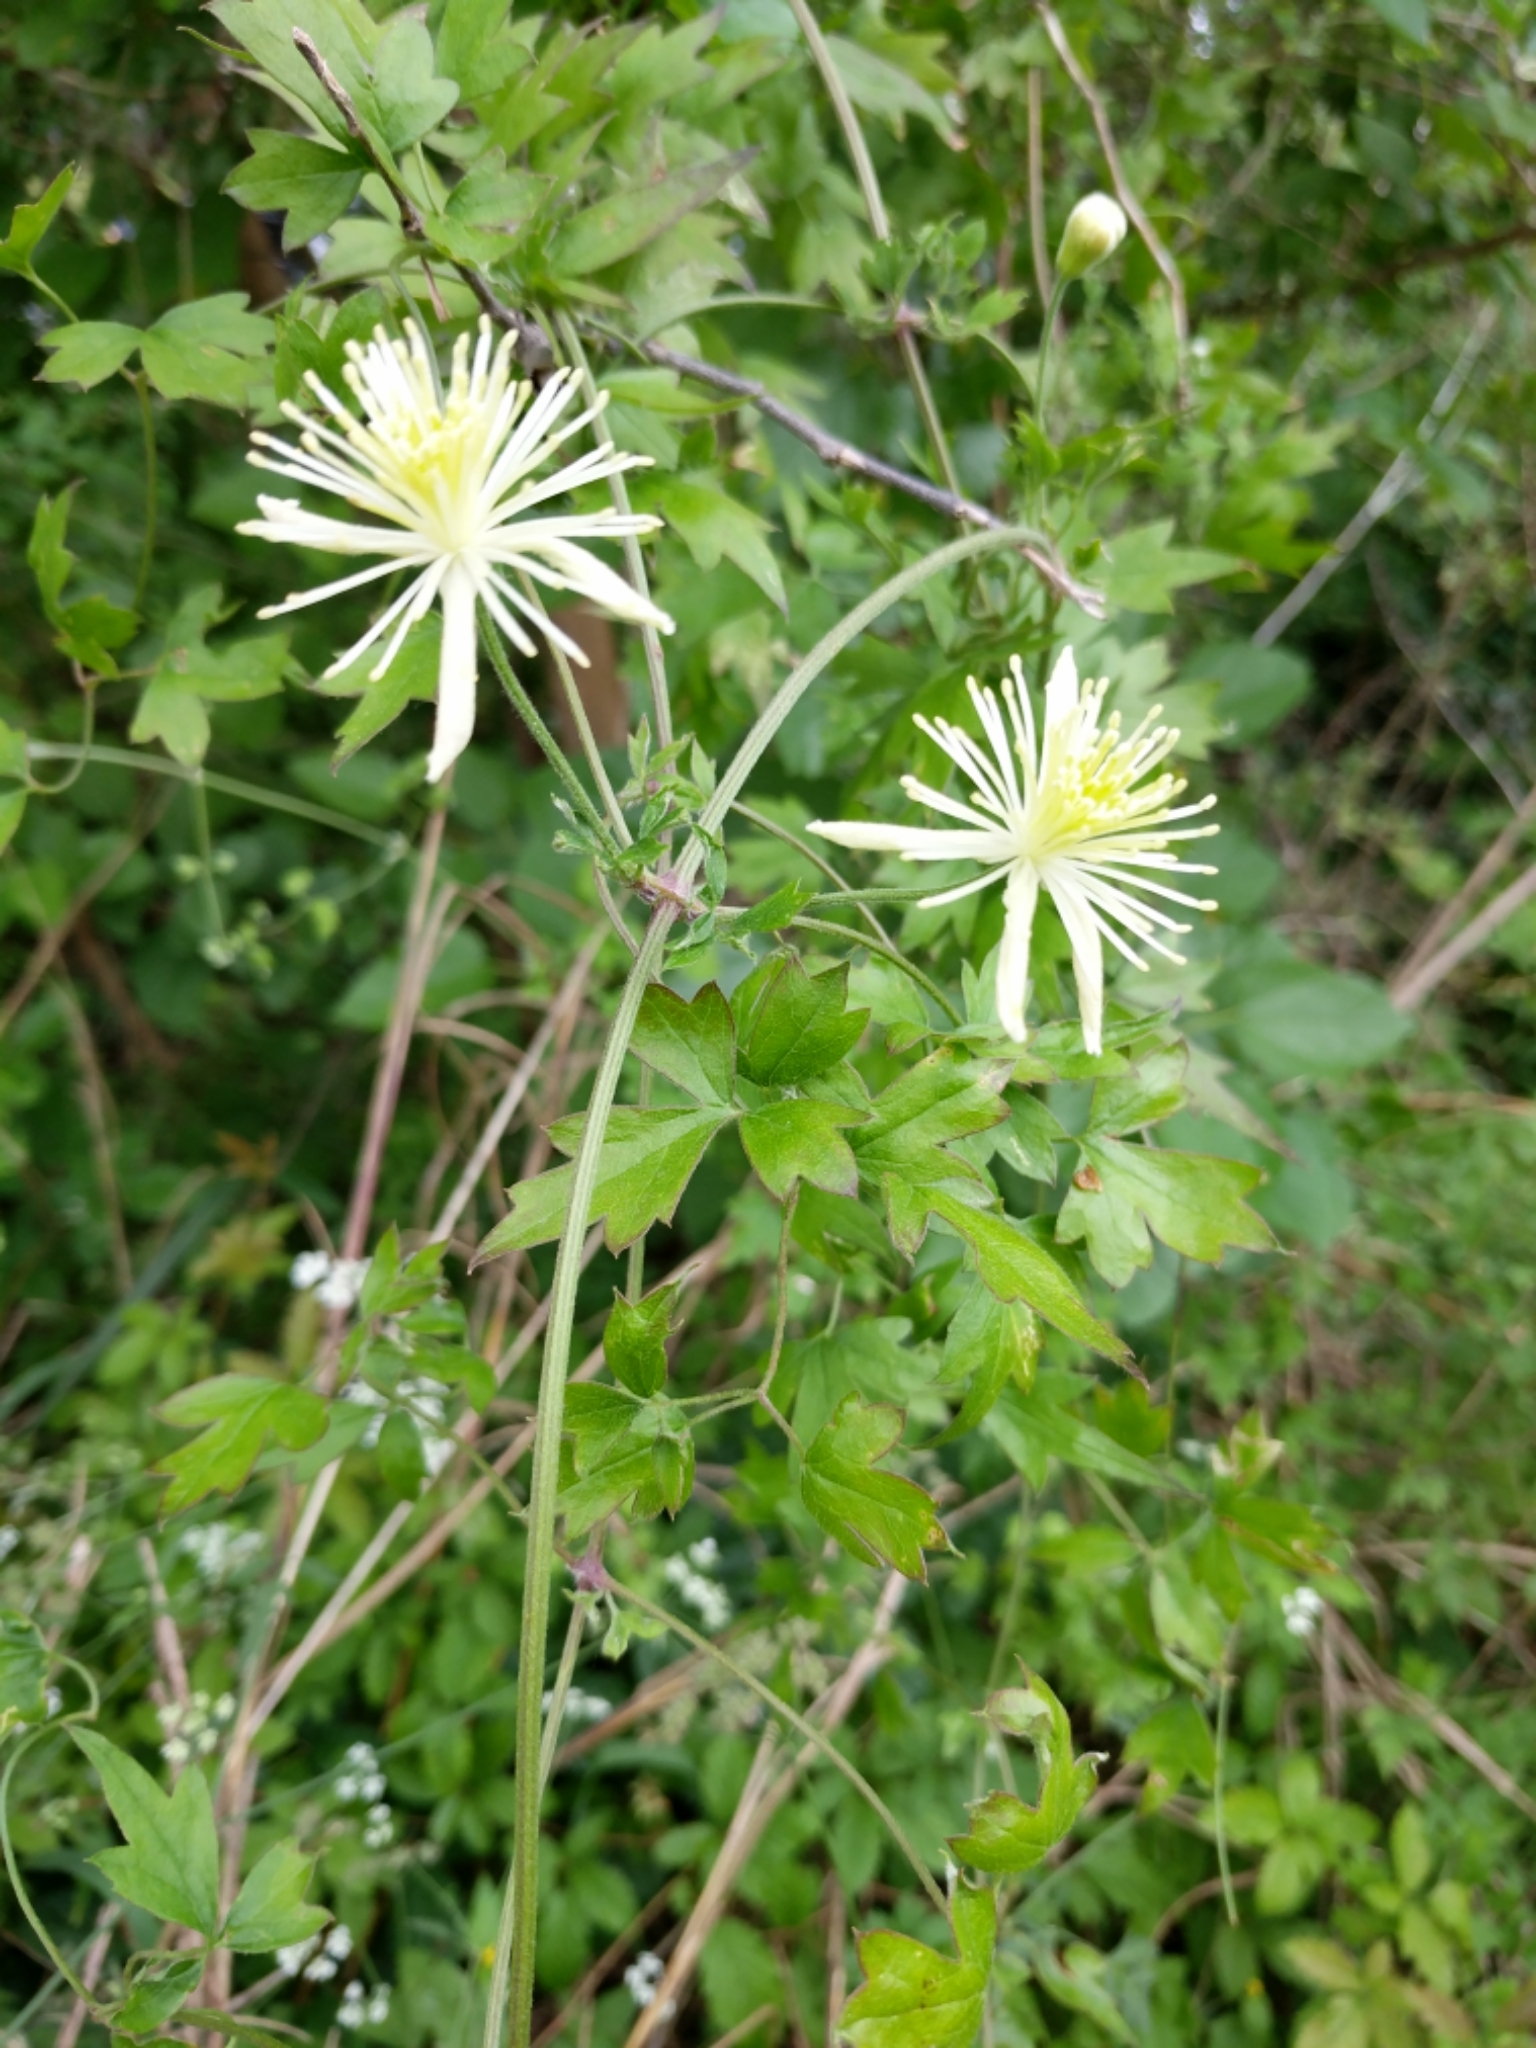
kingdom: Plantae
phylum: Tracheophyta
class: Magnoliopsida
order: Ranunculales
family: Ranunculaceae
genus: Clematis
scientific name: Clematis drummondii
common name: Texas virgin's bower
